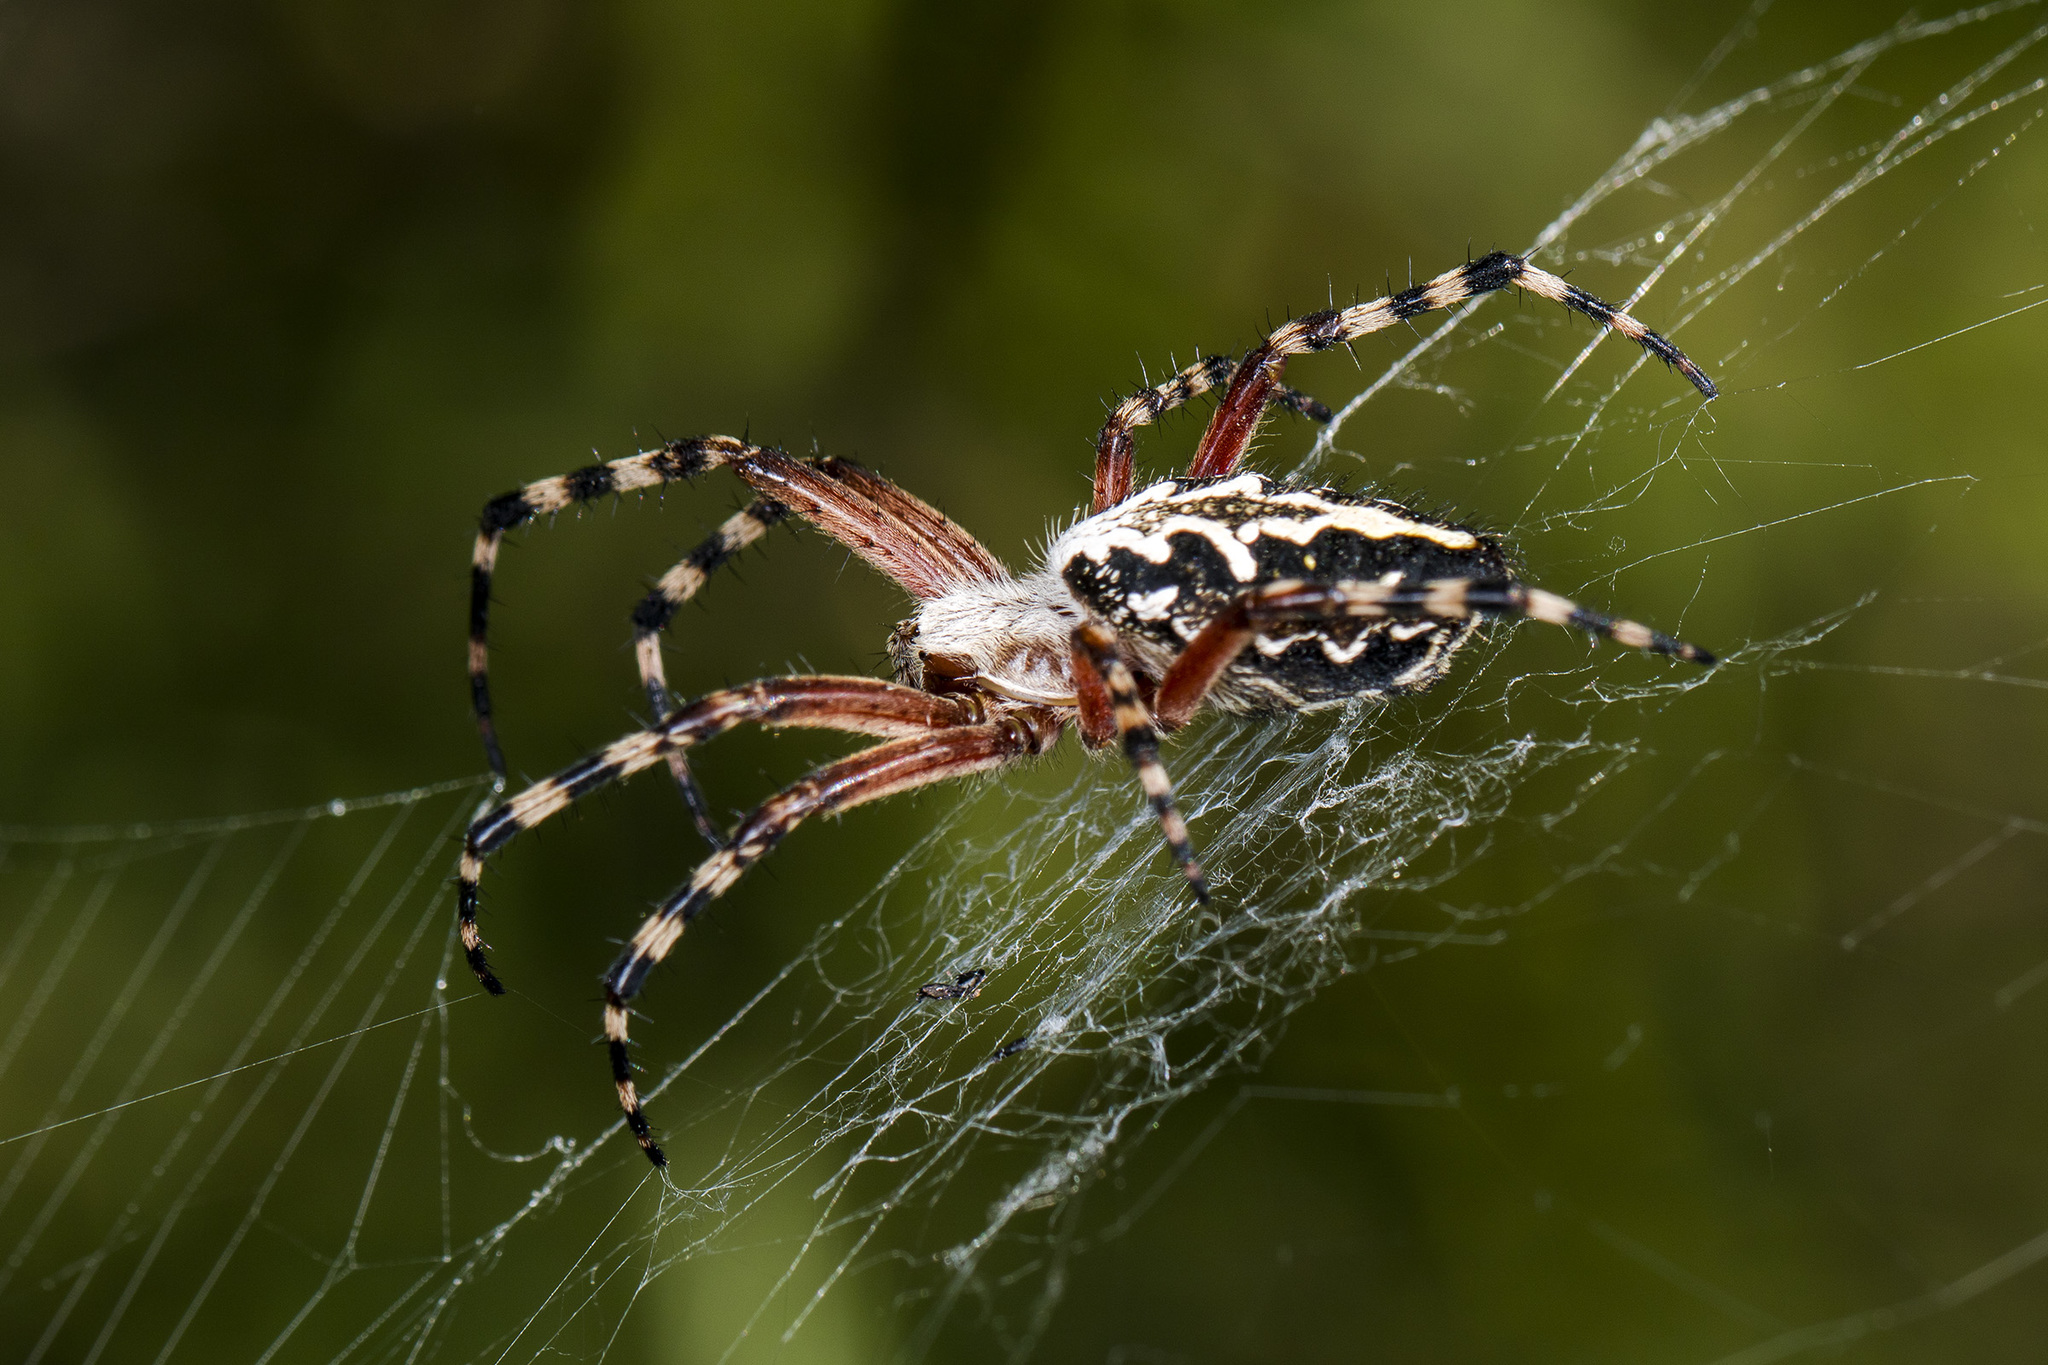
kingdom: Animalia
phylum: Arthropoda
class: Arachnida
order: Araneae
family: Araneidae
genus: Aculepeira
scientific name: Aculepeira packardi
